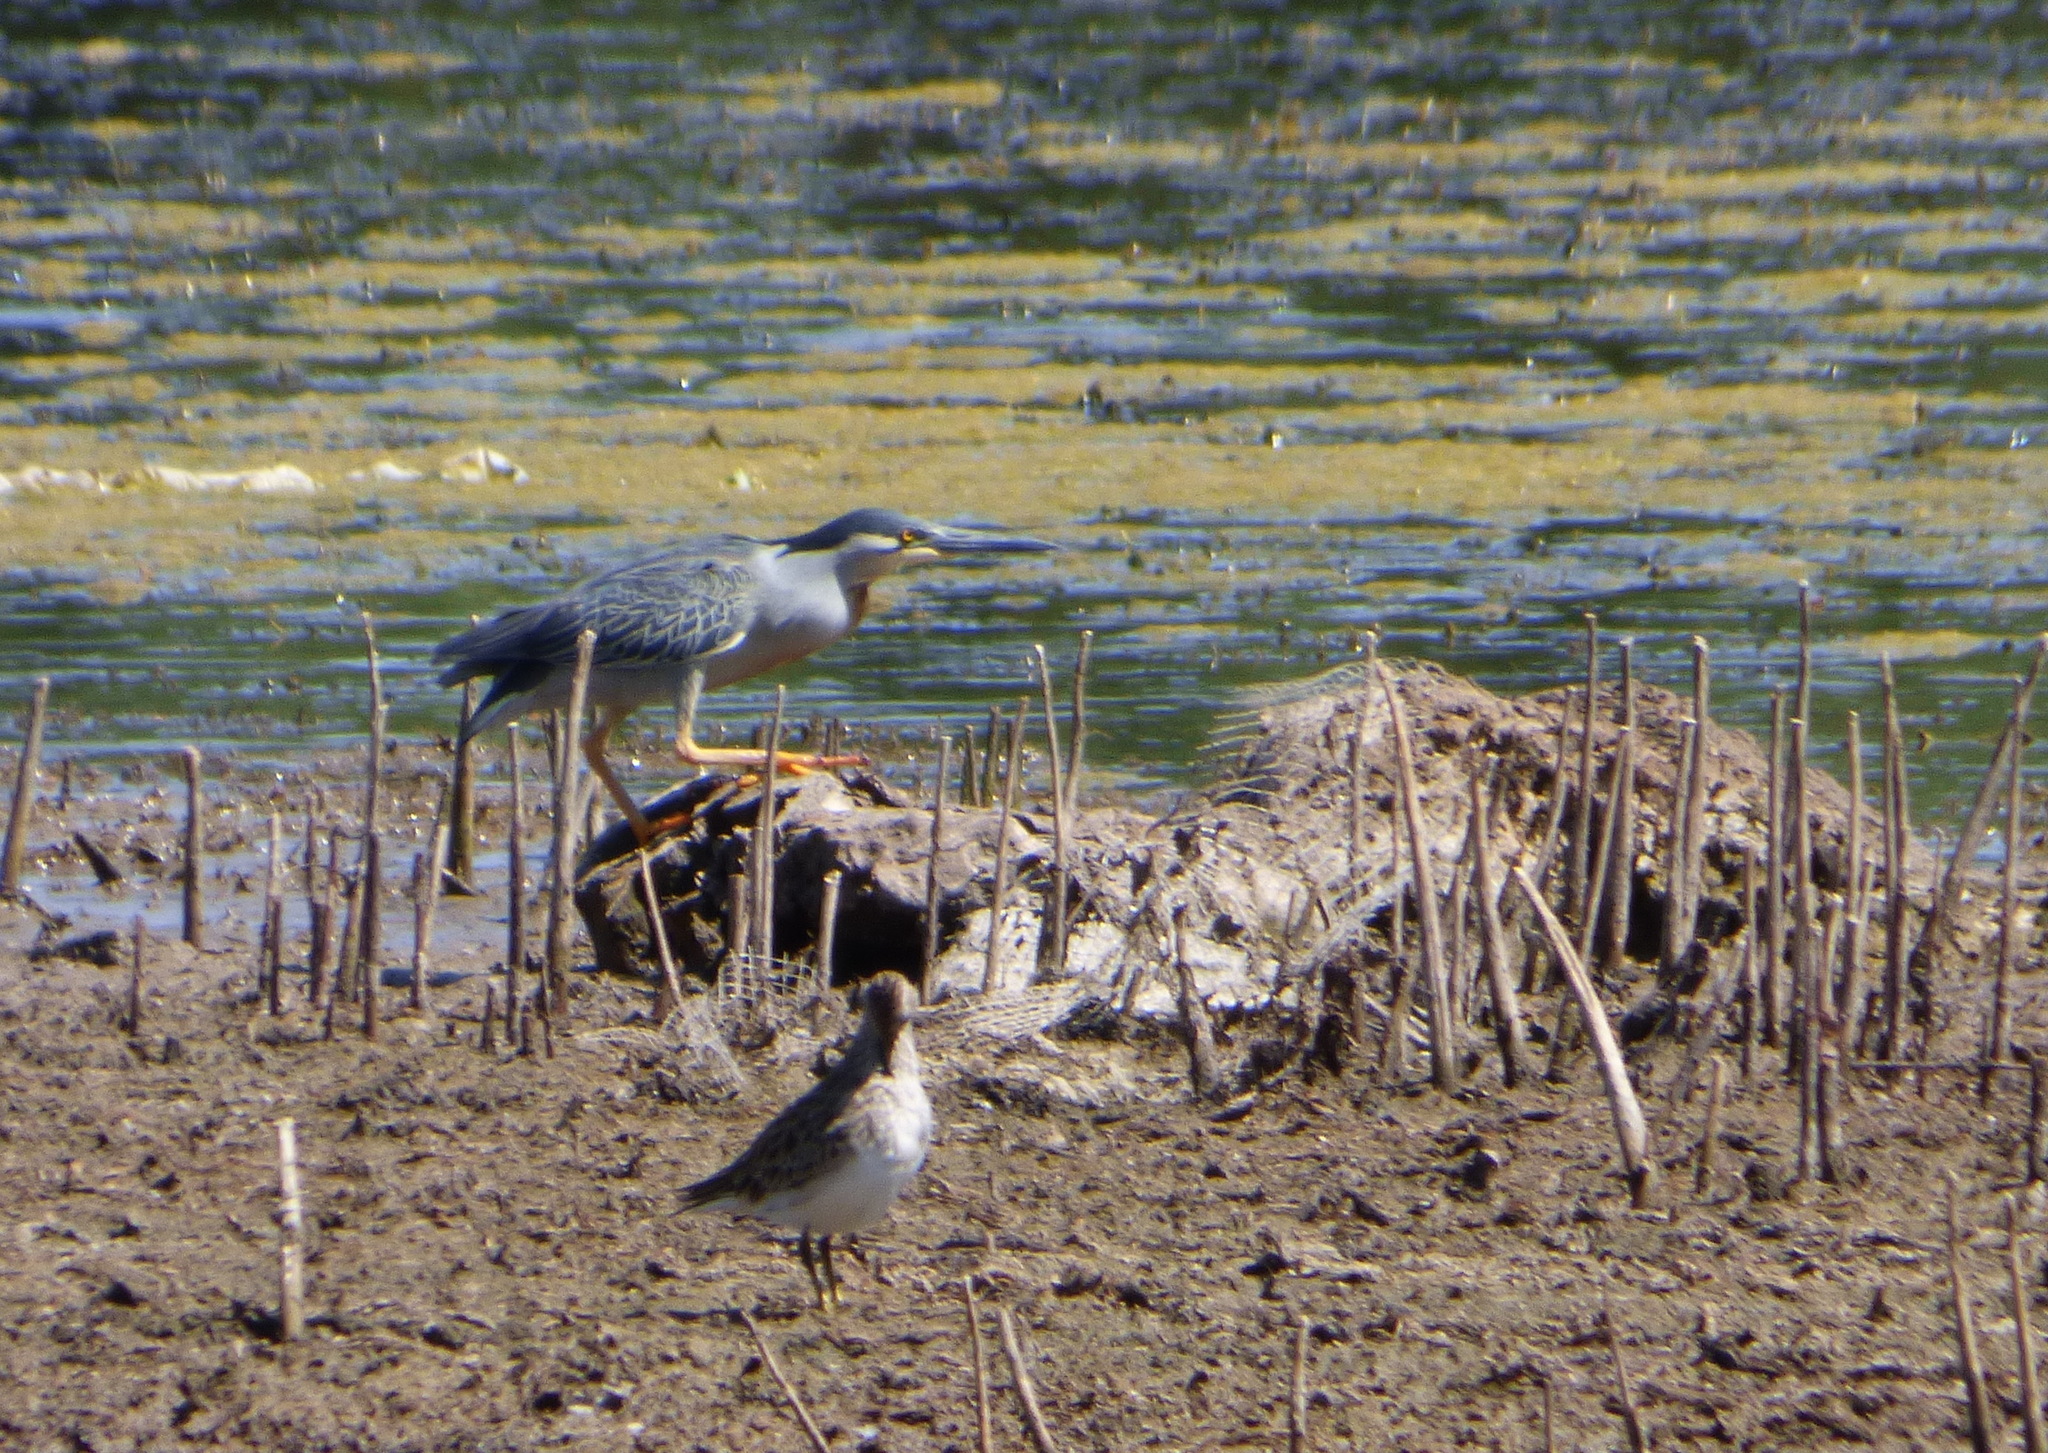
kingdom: Animalia
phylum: Chordata
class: Aves
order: Pelecaniformes
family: Ardeidae
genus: Butorides
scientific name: Butorides striata
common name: Striated heron
